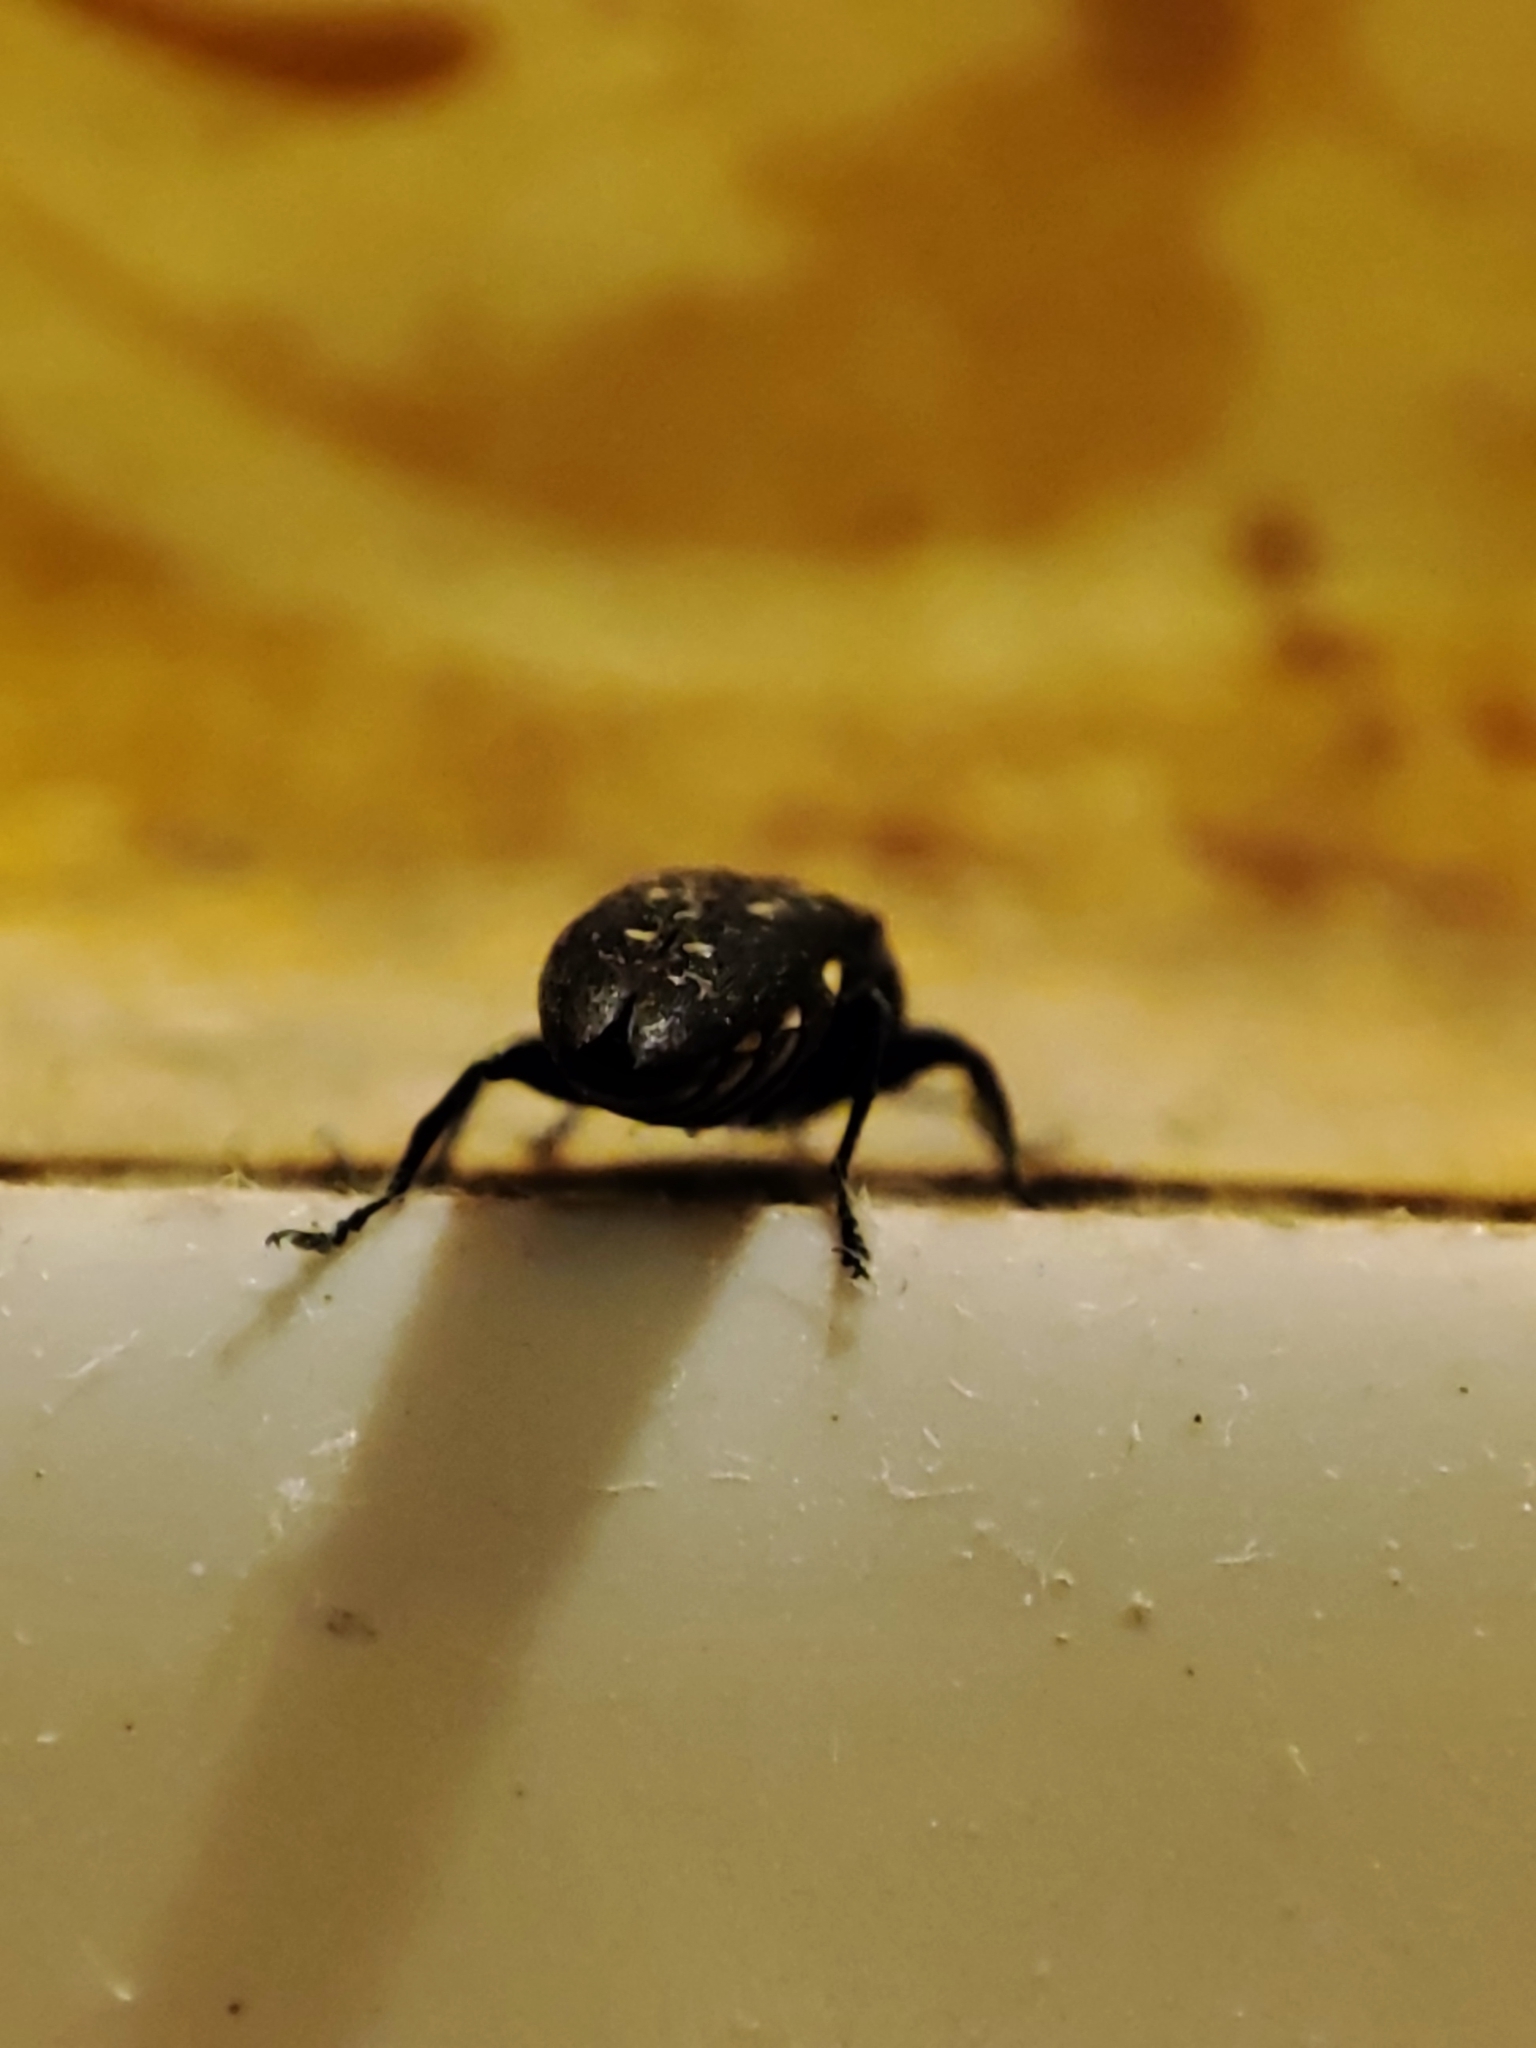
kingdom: Animalia
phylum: Arthropoda
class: Insecta
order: Coleoptera
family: Buprestidae
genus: Agrilus
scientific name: Agrilus ater
